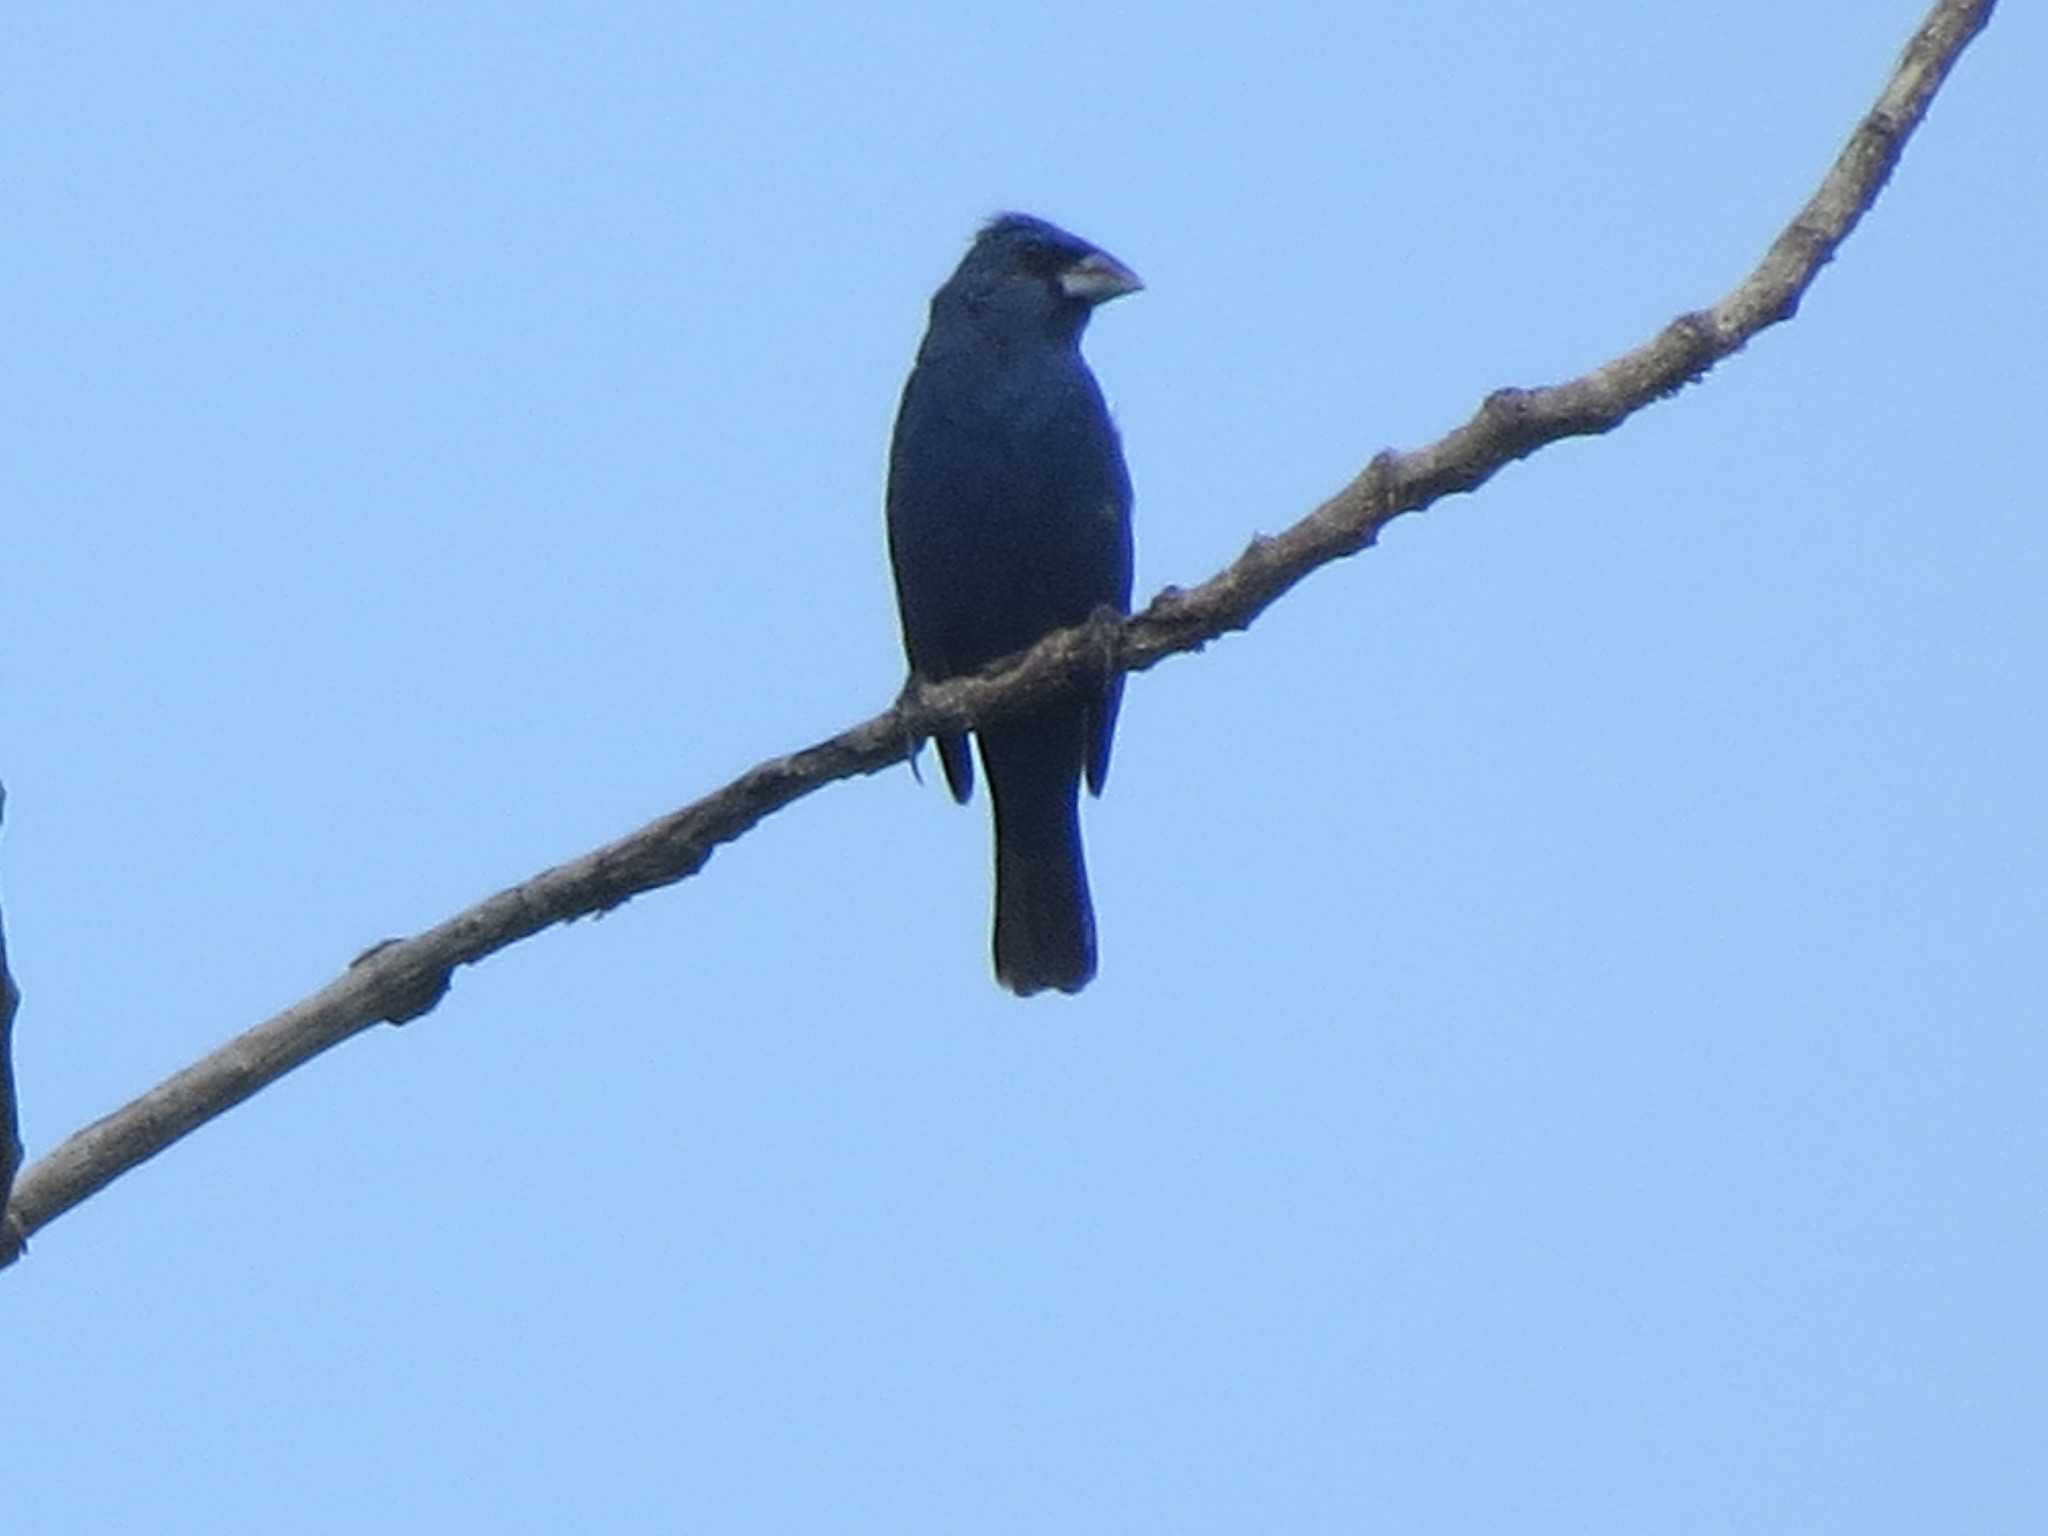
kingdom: Animalia
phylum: Chordata
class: Aves
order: Passeriformes
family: Cardinalidae
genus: Passerina
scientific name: Passerina caerulea
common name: Blue grosbeak
